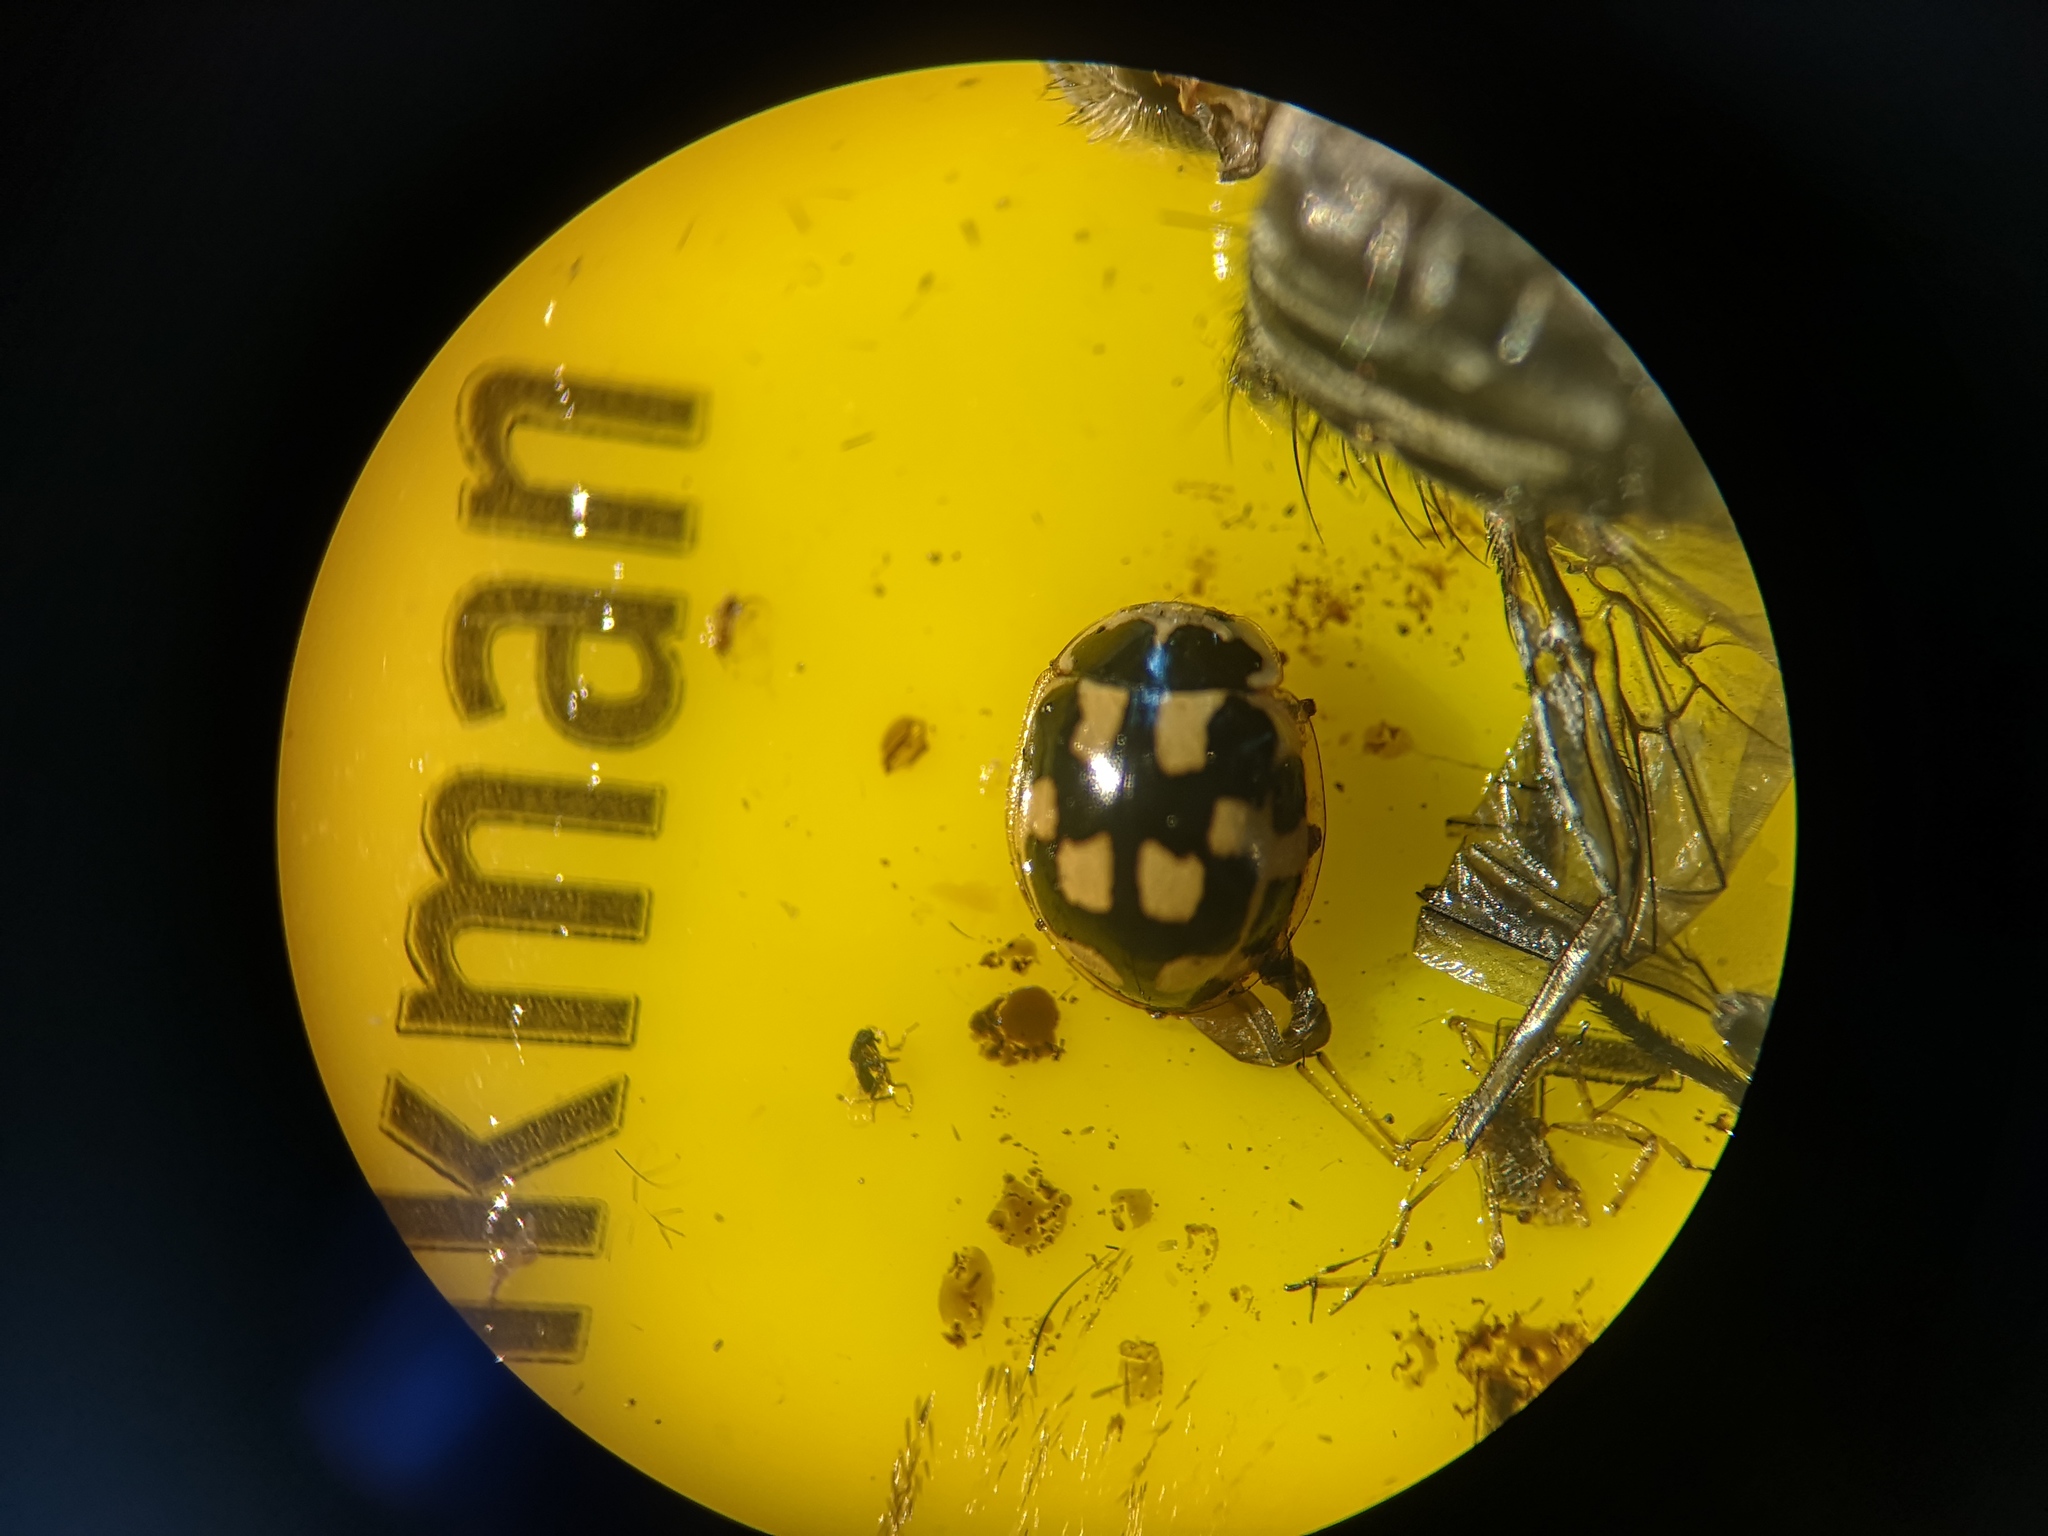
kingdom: Animalia
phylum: Arthropoda
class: Insecta
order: Coleoptera
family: Coccinellidae
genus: Propylaea
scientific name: Propylaea quatuordecimpunctata
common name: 14-spotted ladybird beetle
